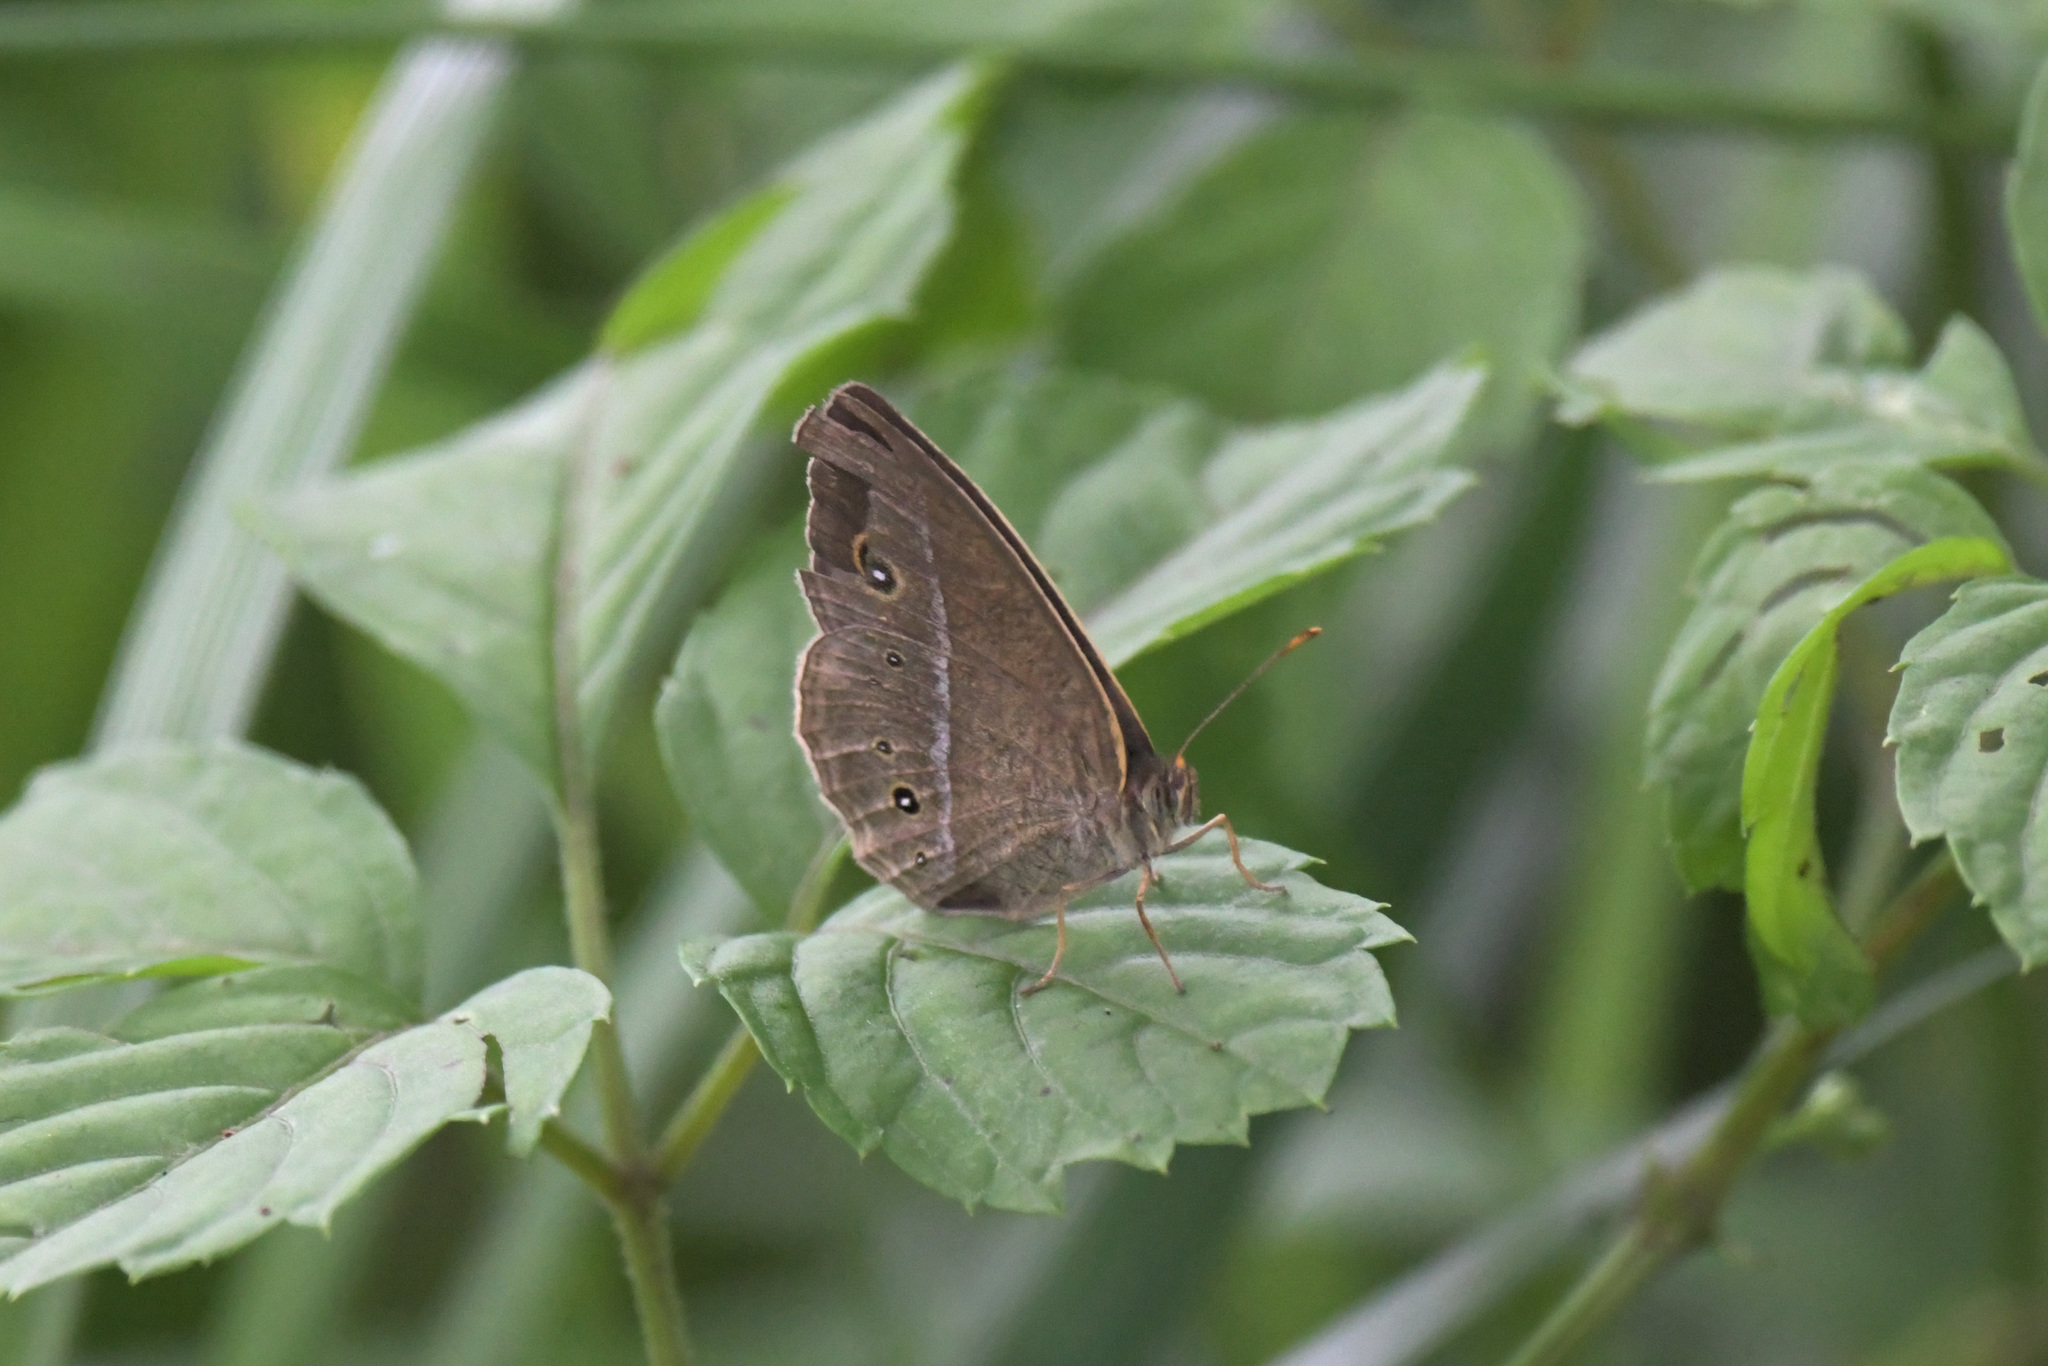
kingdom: Animalia
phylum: Arthropoda
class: Insecta
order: Lepidoptera
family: Nymphalidae
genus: Mycalesis
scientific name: Mycalesis sangaica
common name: Painted bushbrown
